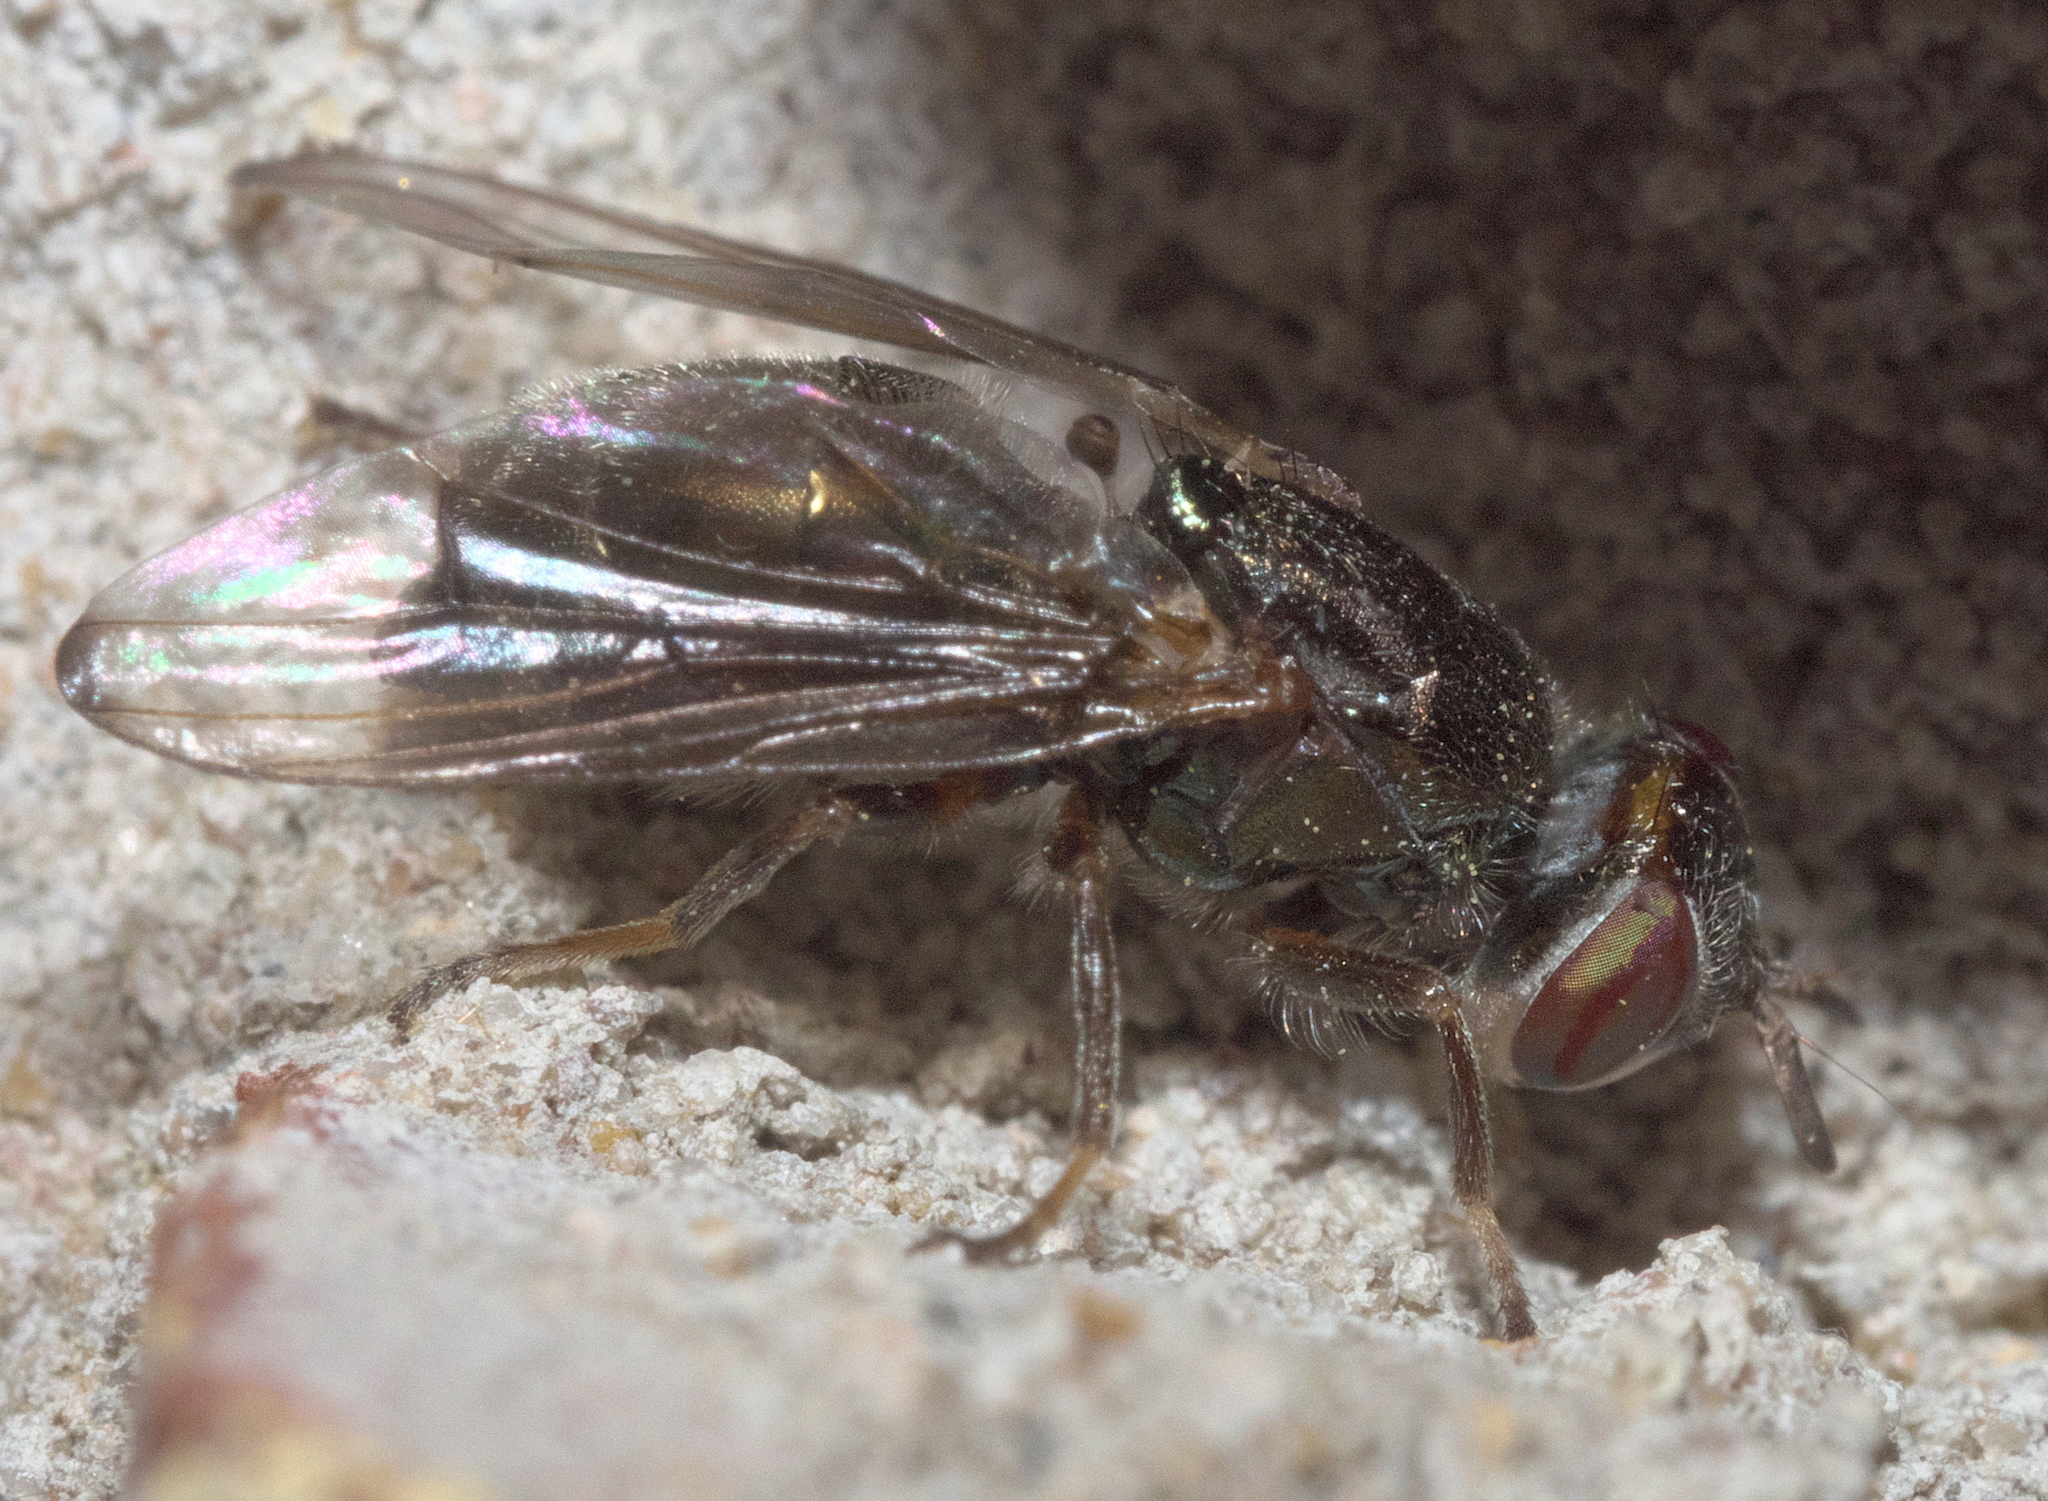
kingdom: Animalia
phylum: Arthropoda
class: Insecta
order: Diptera
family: Platystomatidae
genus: Senopterina
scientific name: Senopterina foxleei
